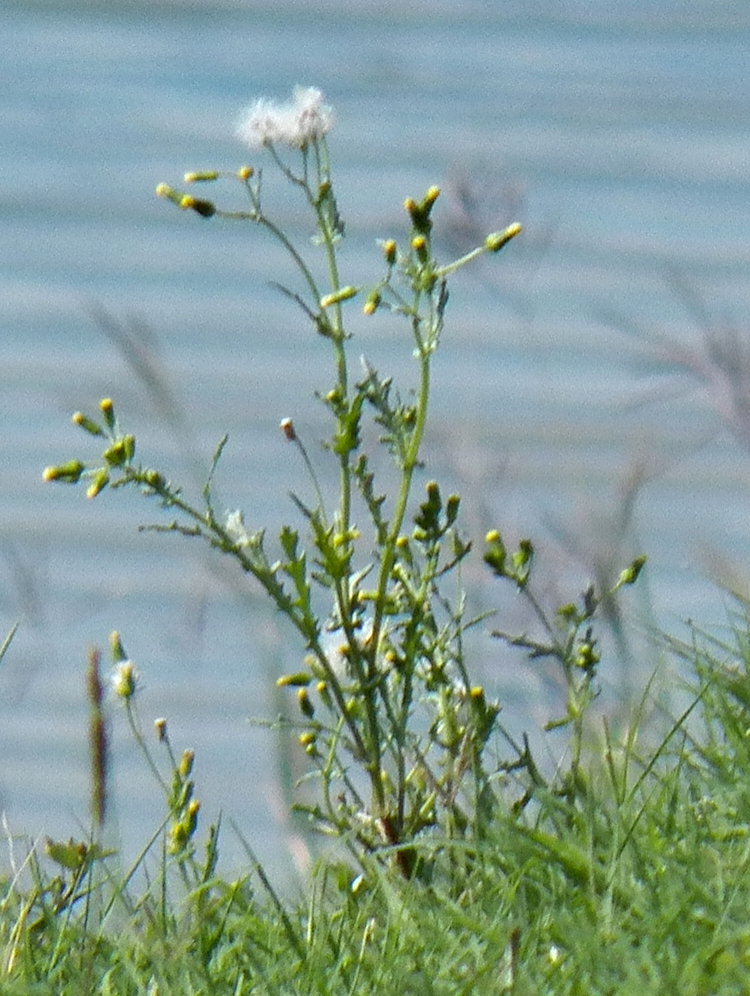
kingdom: Plantae
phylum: Tracheophyta
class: Magnoliopsida
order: Asterales
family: Asteraceae
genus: Senecio
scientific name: Senecio vulgaris
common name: Old-man-in-the-spring
